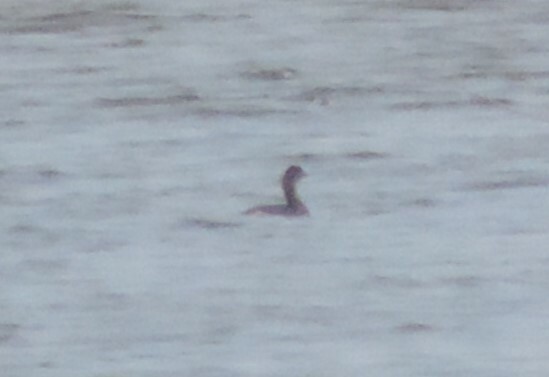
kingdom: Animalia
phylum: Chordata
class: Aves
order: Podicipediformes
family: Podicipedidae
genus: Podilymbus
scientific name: Podilymbus podiceps
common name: Pied-billed grebe
